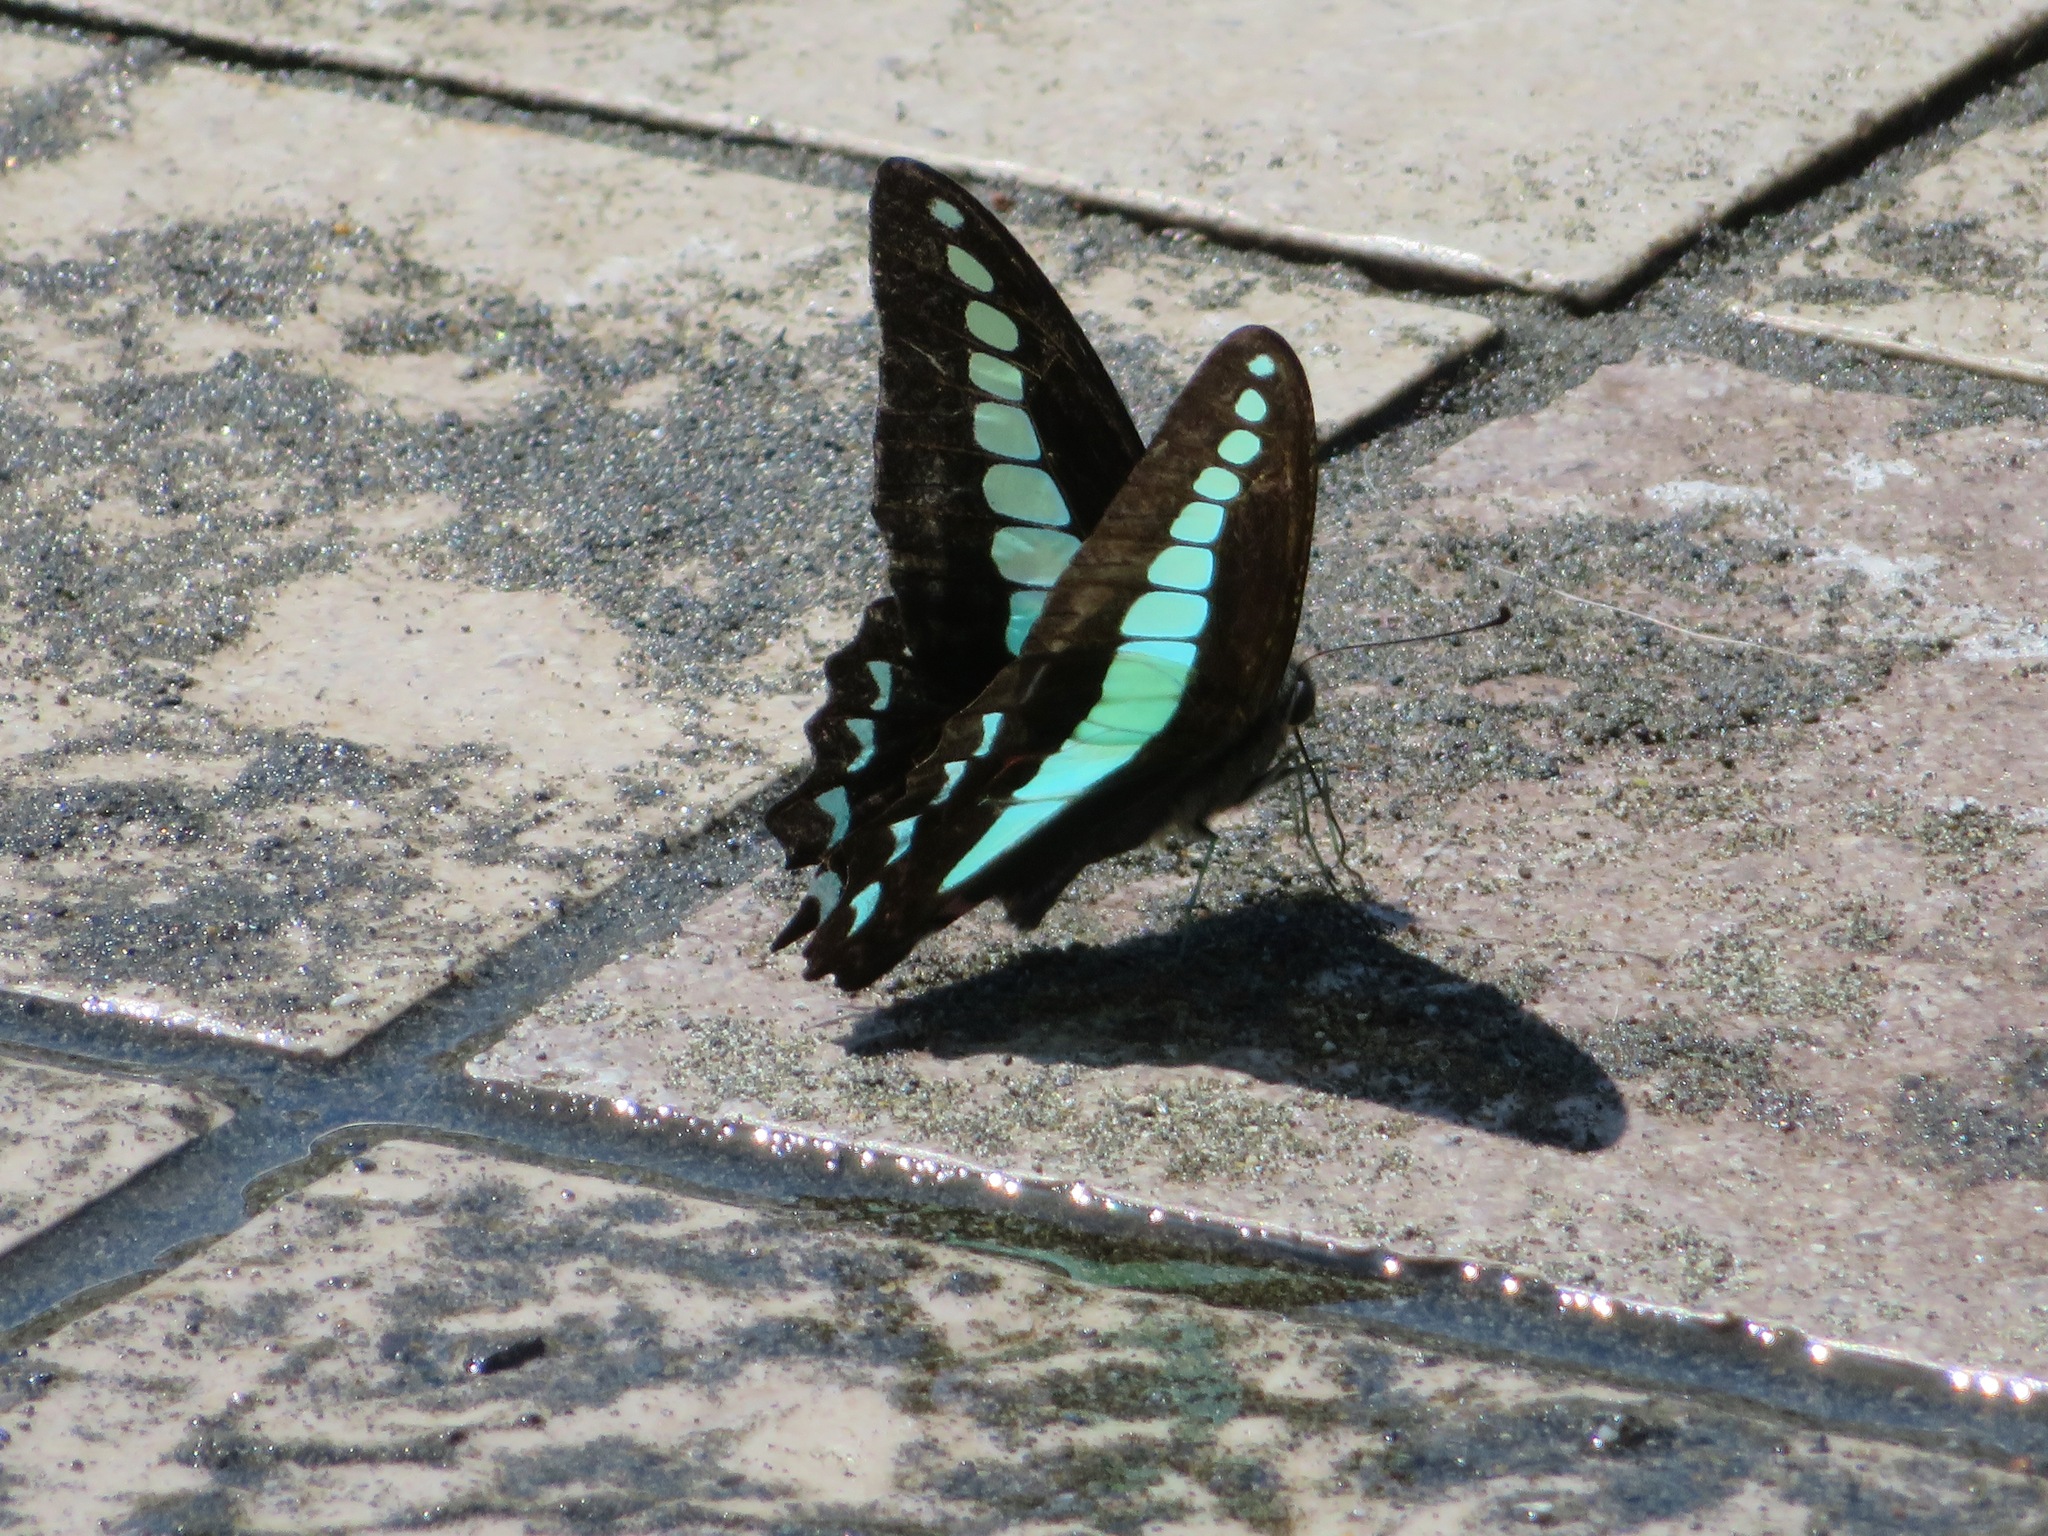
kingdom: Fungi
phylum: Ascomycota
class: Sordariomycetes
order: Microascales
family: Microascaceae
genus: Graphium
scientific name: Graphium sarpedon
